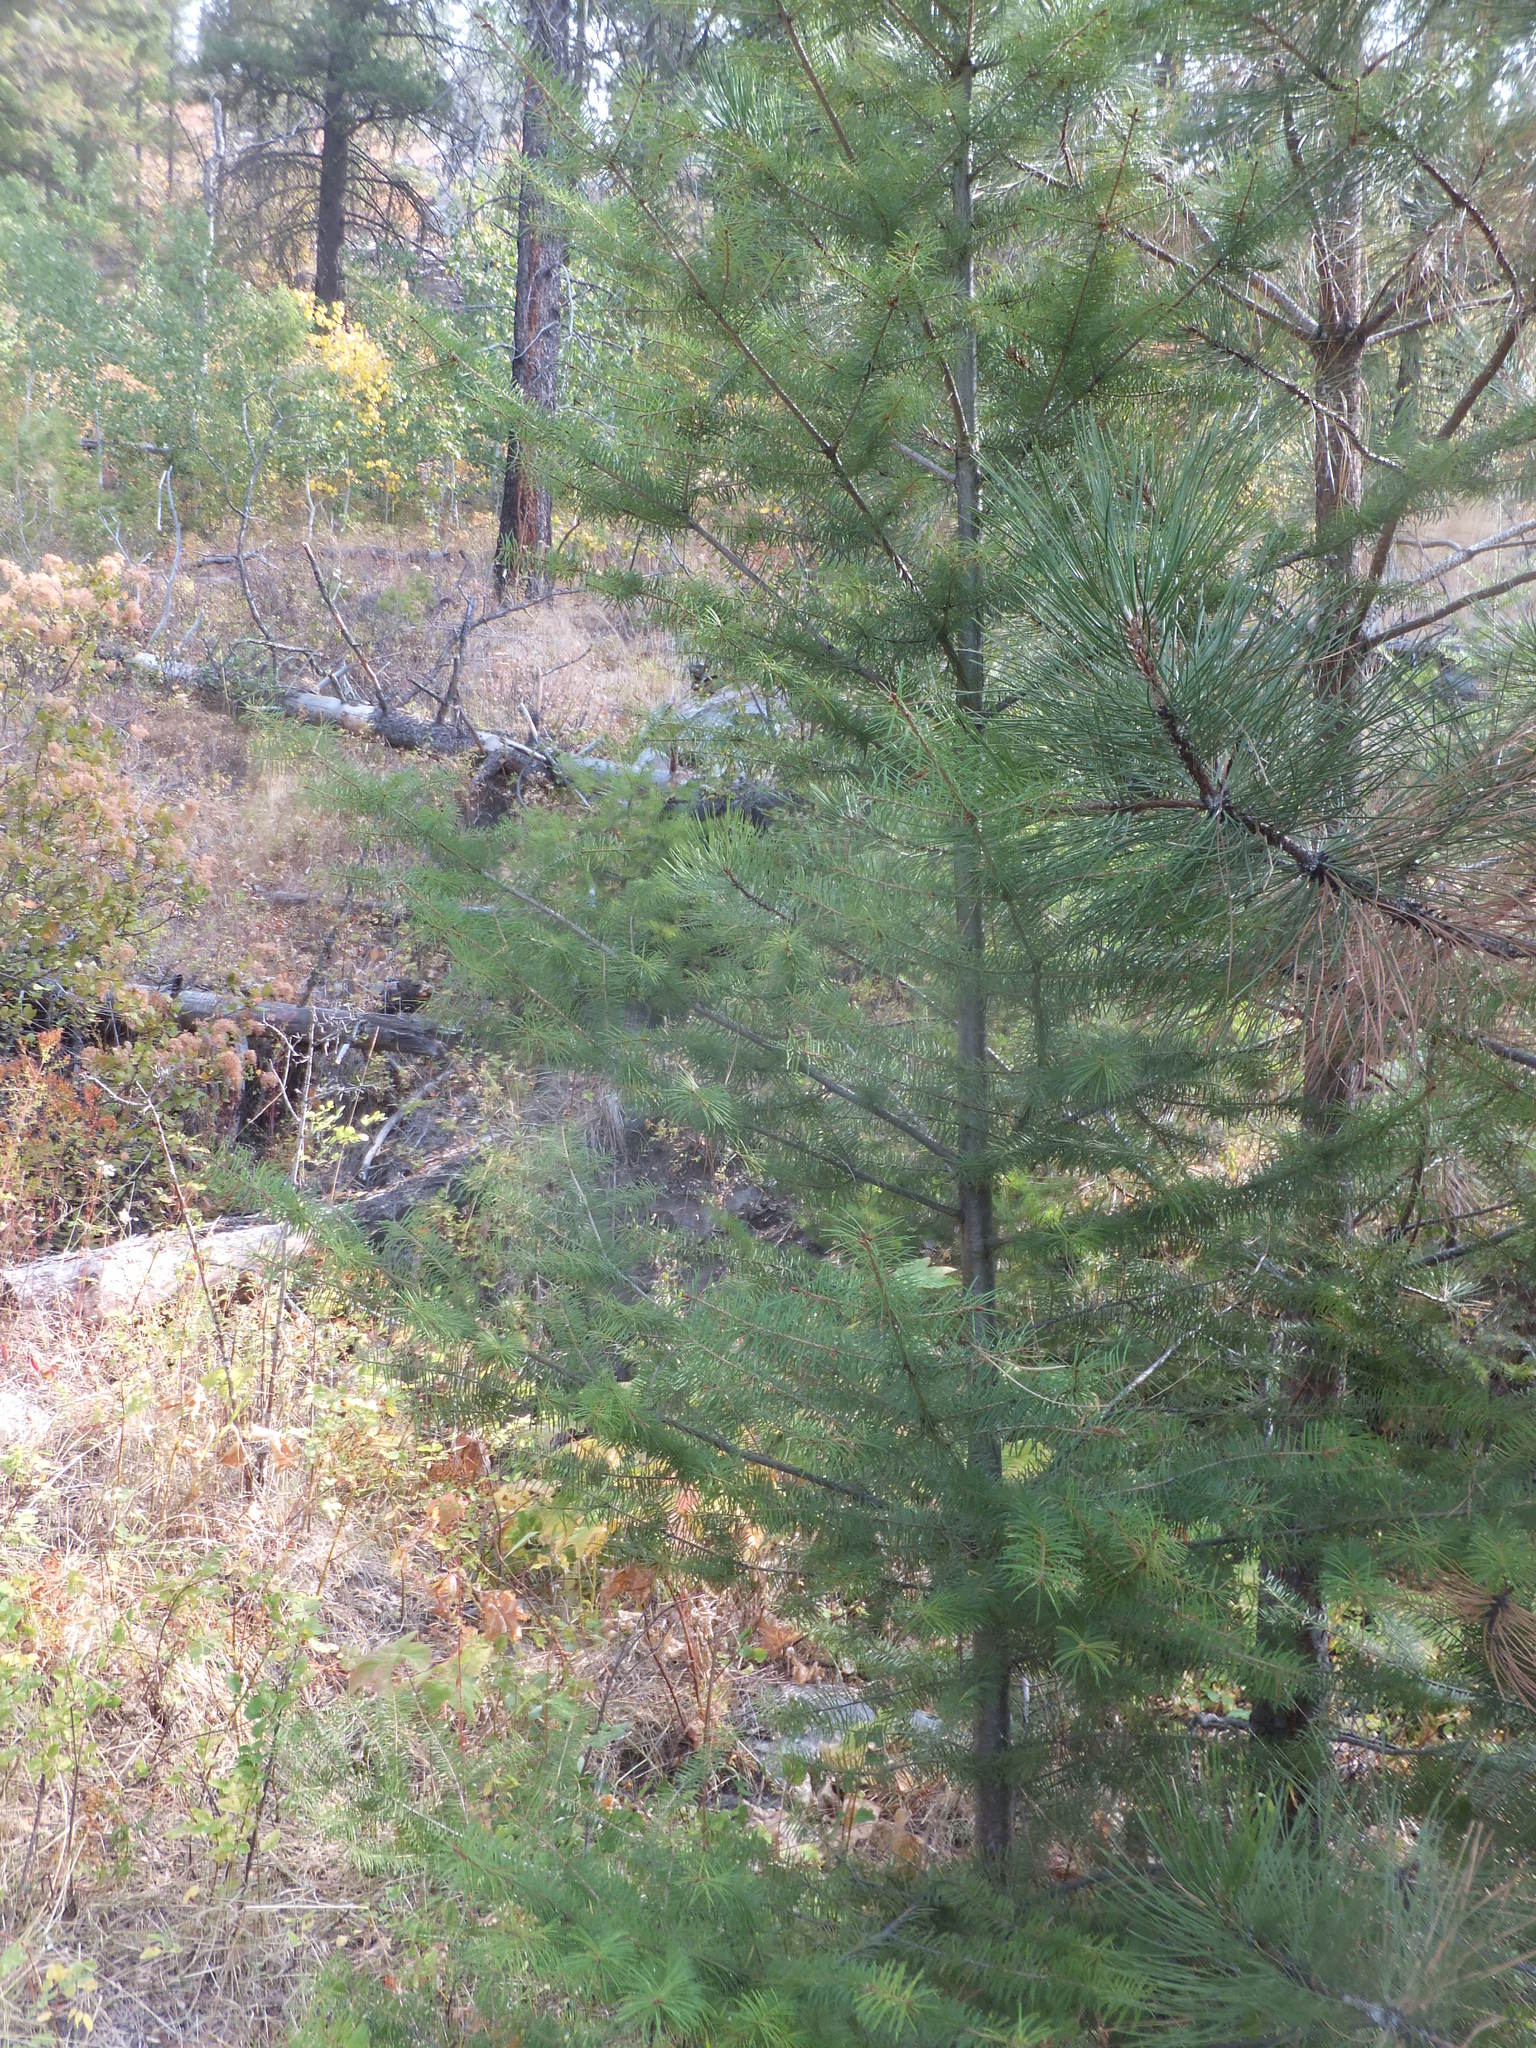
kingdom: Plantae
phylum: Tracheophyta
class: Pinopsida
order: Pinales
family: Pinaceae
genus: Pseudotsuga
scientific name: Pseudotsuga menziesii
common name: Douglas fir
